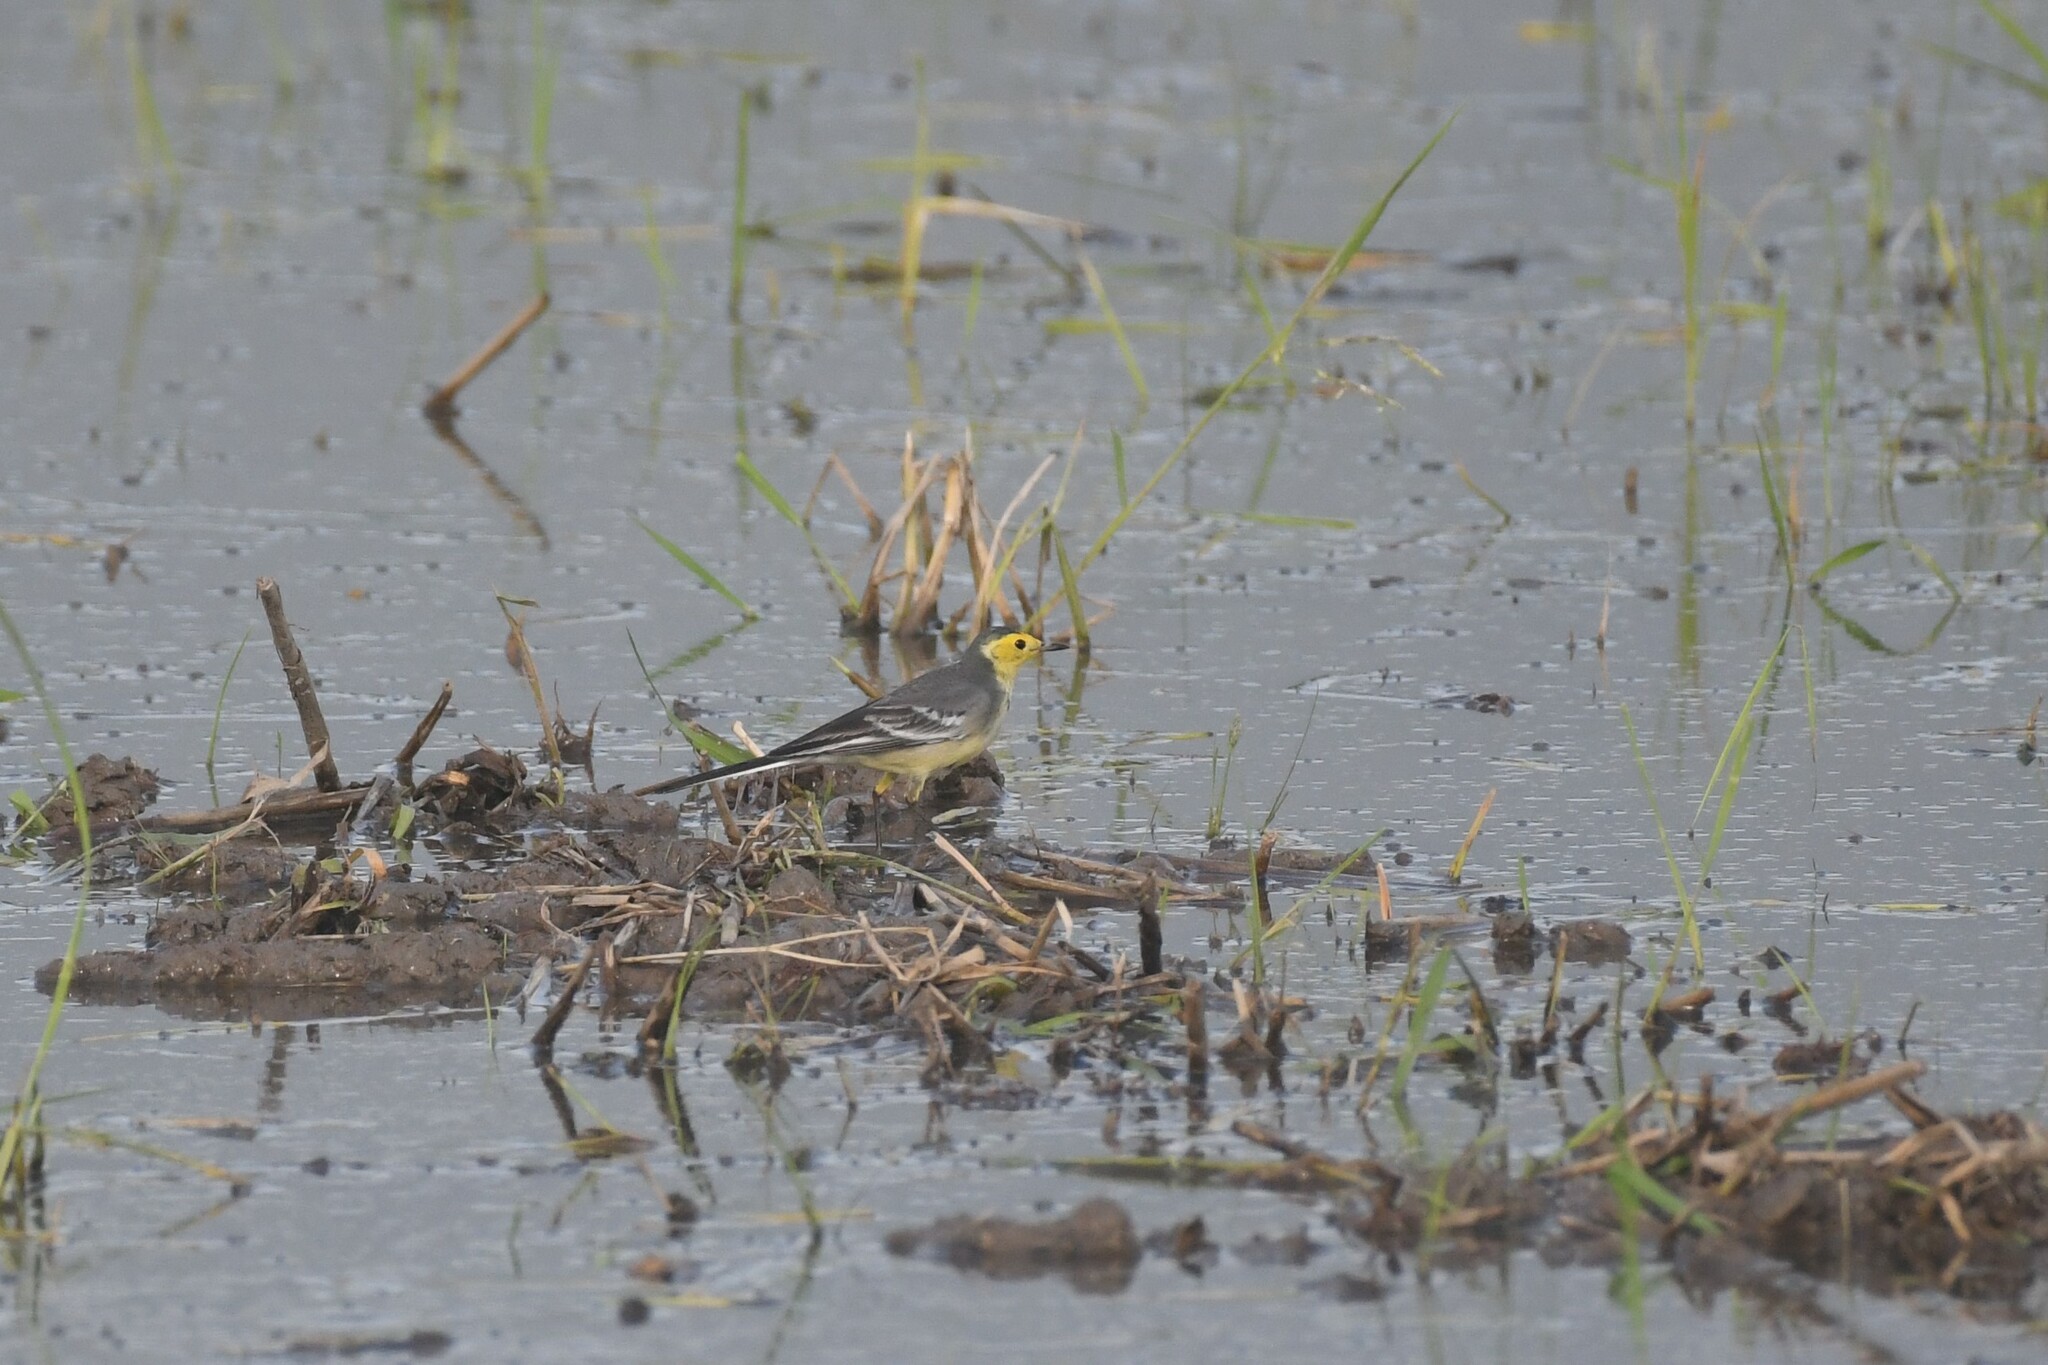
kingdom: Animalia
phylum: Chordata
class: Aves
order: Passeriformes
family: Motacillidae
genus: Motacilla
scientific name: Motacilla citreola
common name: Citrine wagtail
